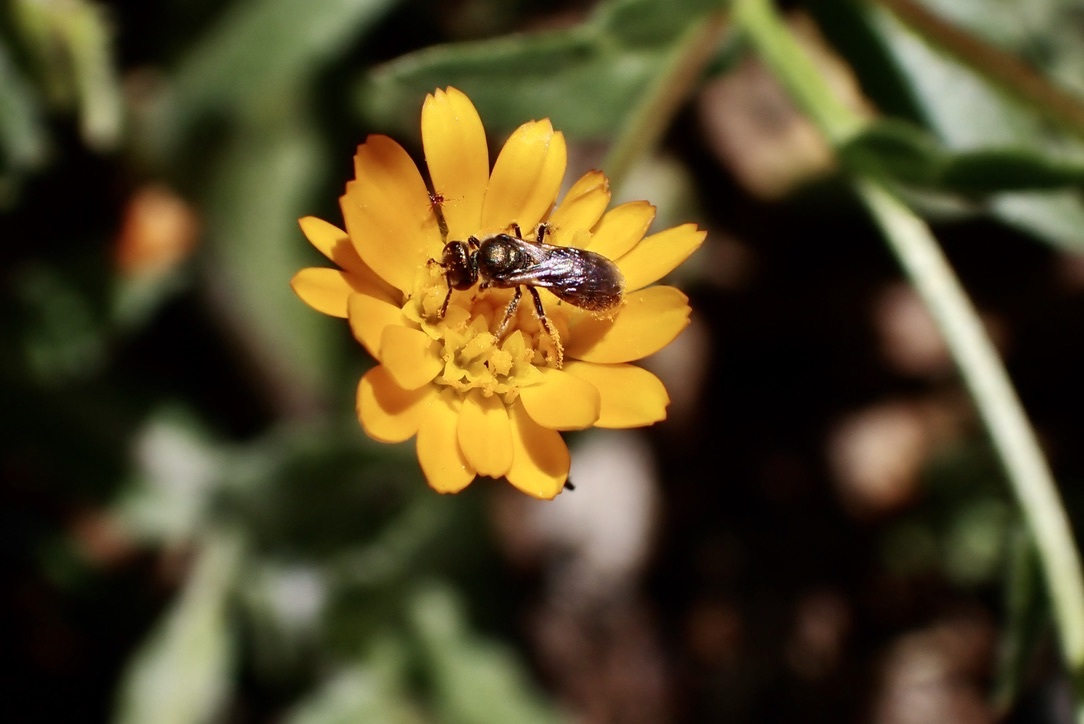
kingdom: Animalia
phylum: Arthropoda
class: Insecta
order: Hymenoptera
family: Halictidae
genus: Dialictus
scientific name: Dialictus
